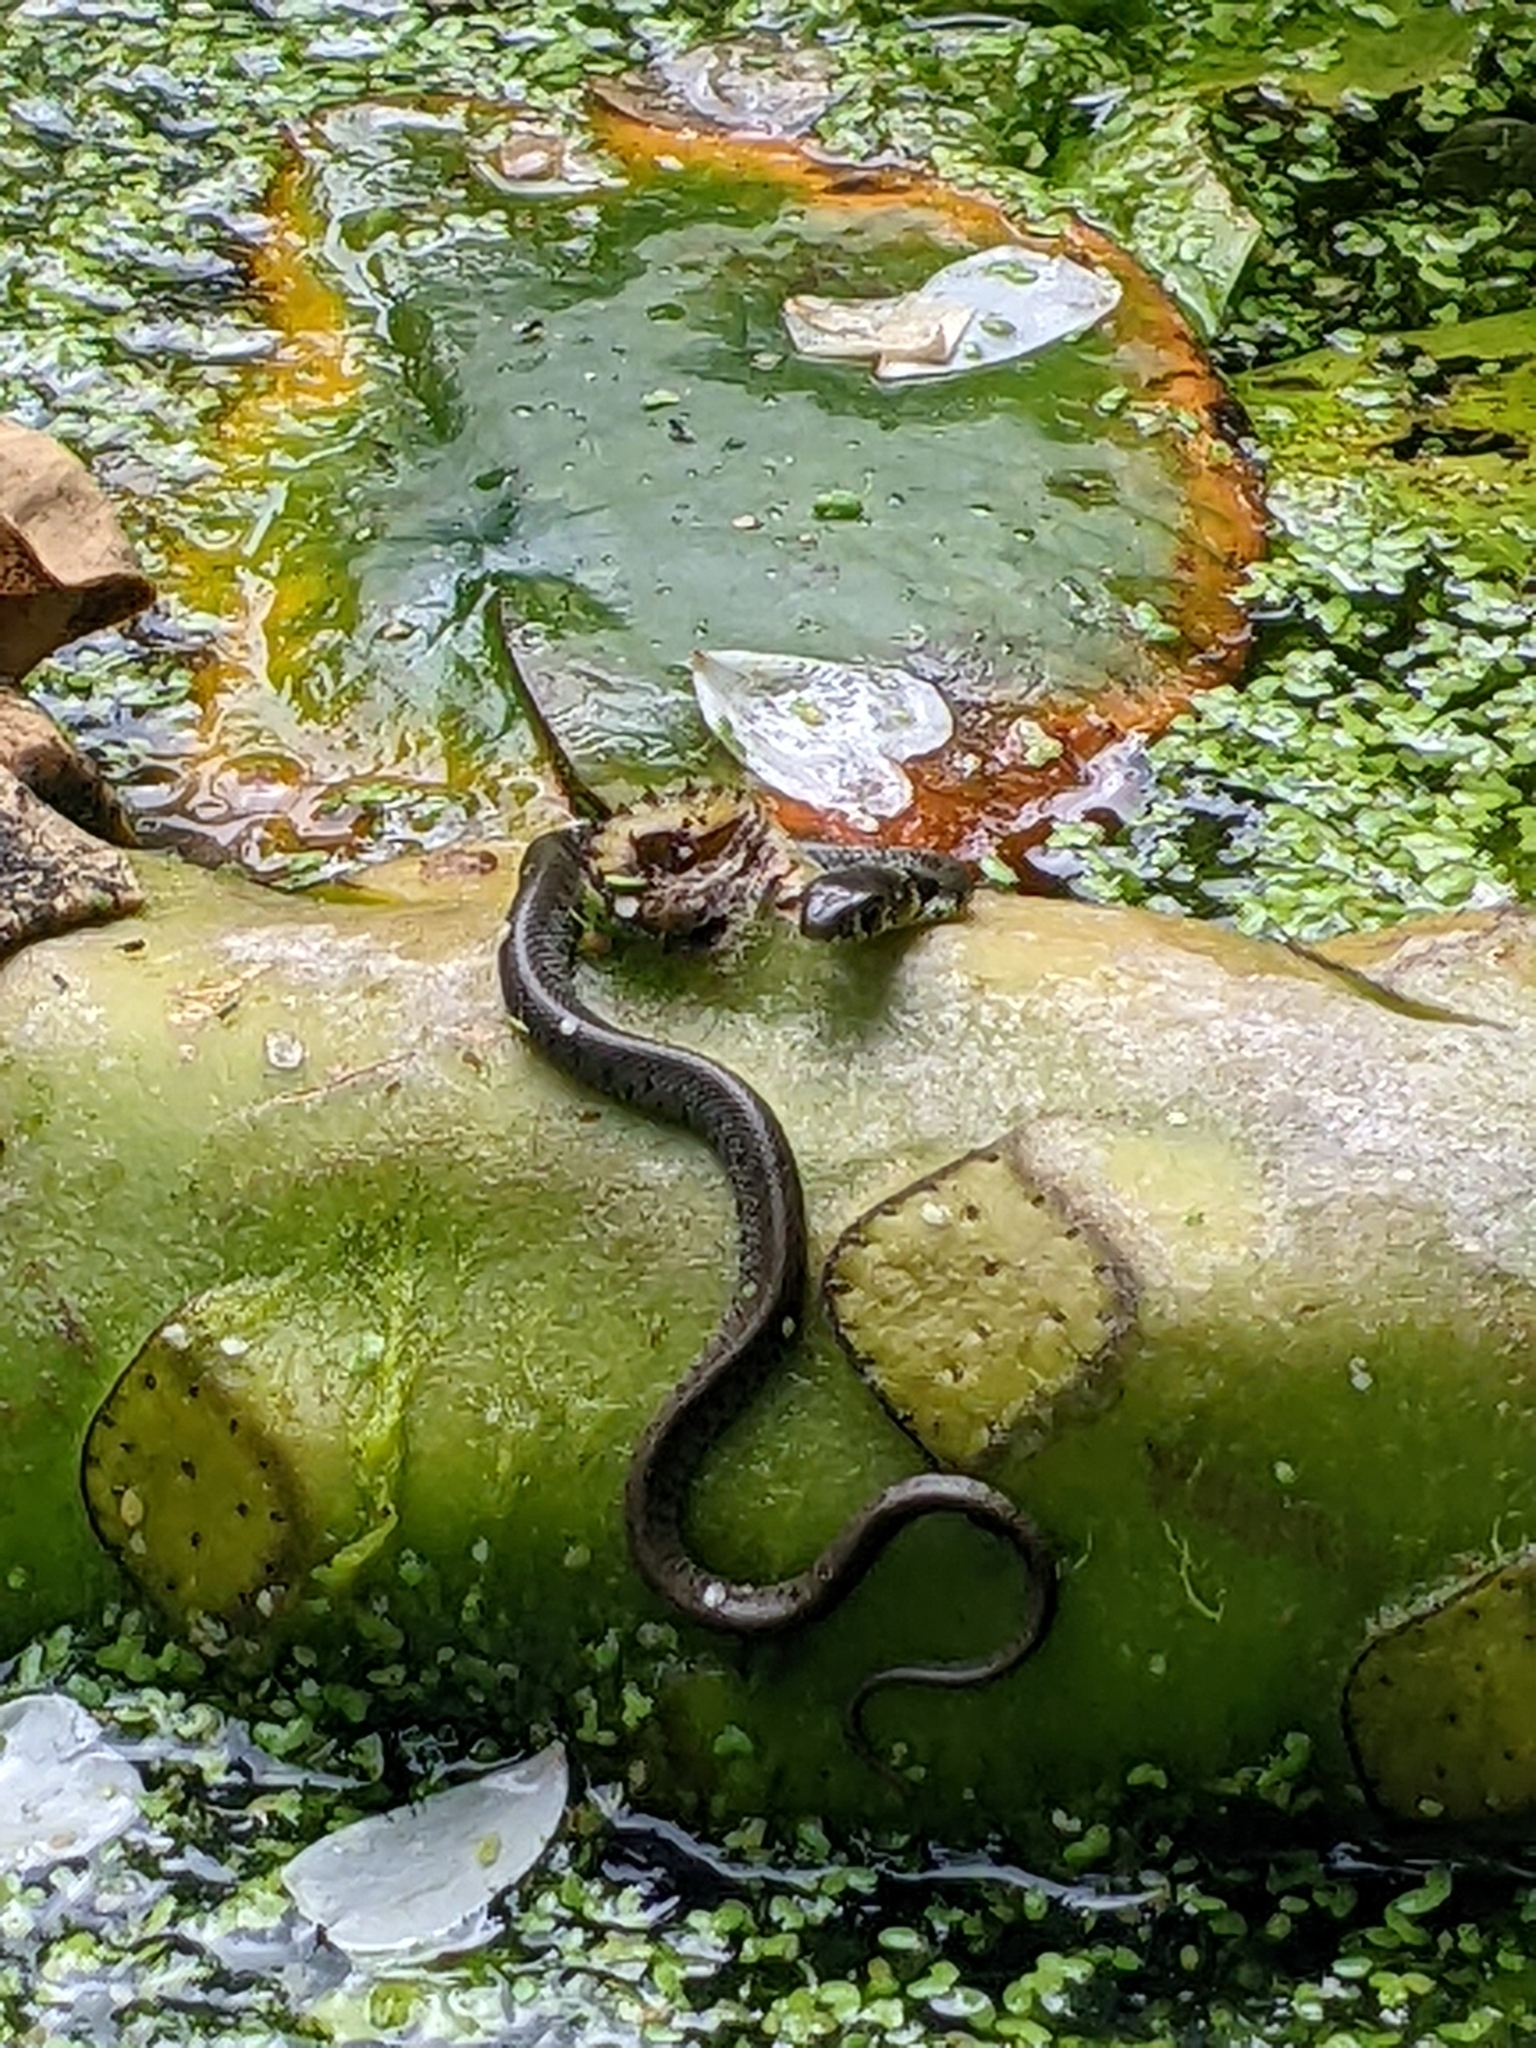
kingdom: Animalia
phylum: Chordata
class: Squamata
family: Colubridae
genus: Natrix
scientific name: Natrix helvetica
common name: Banded grass snake
